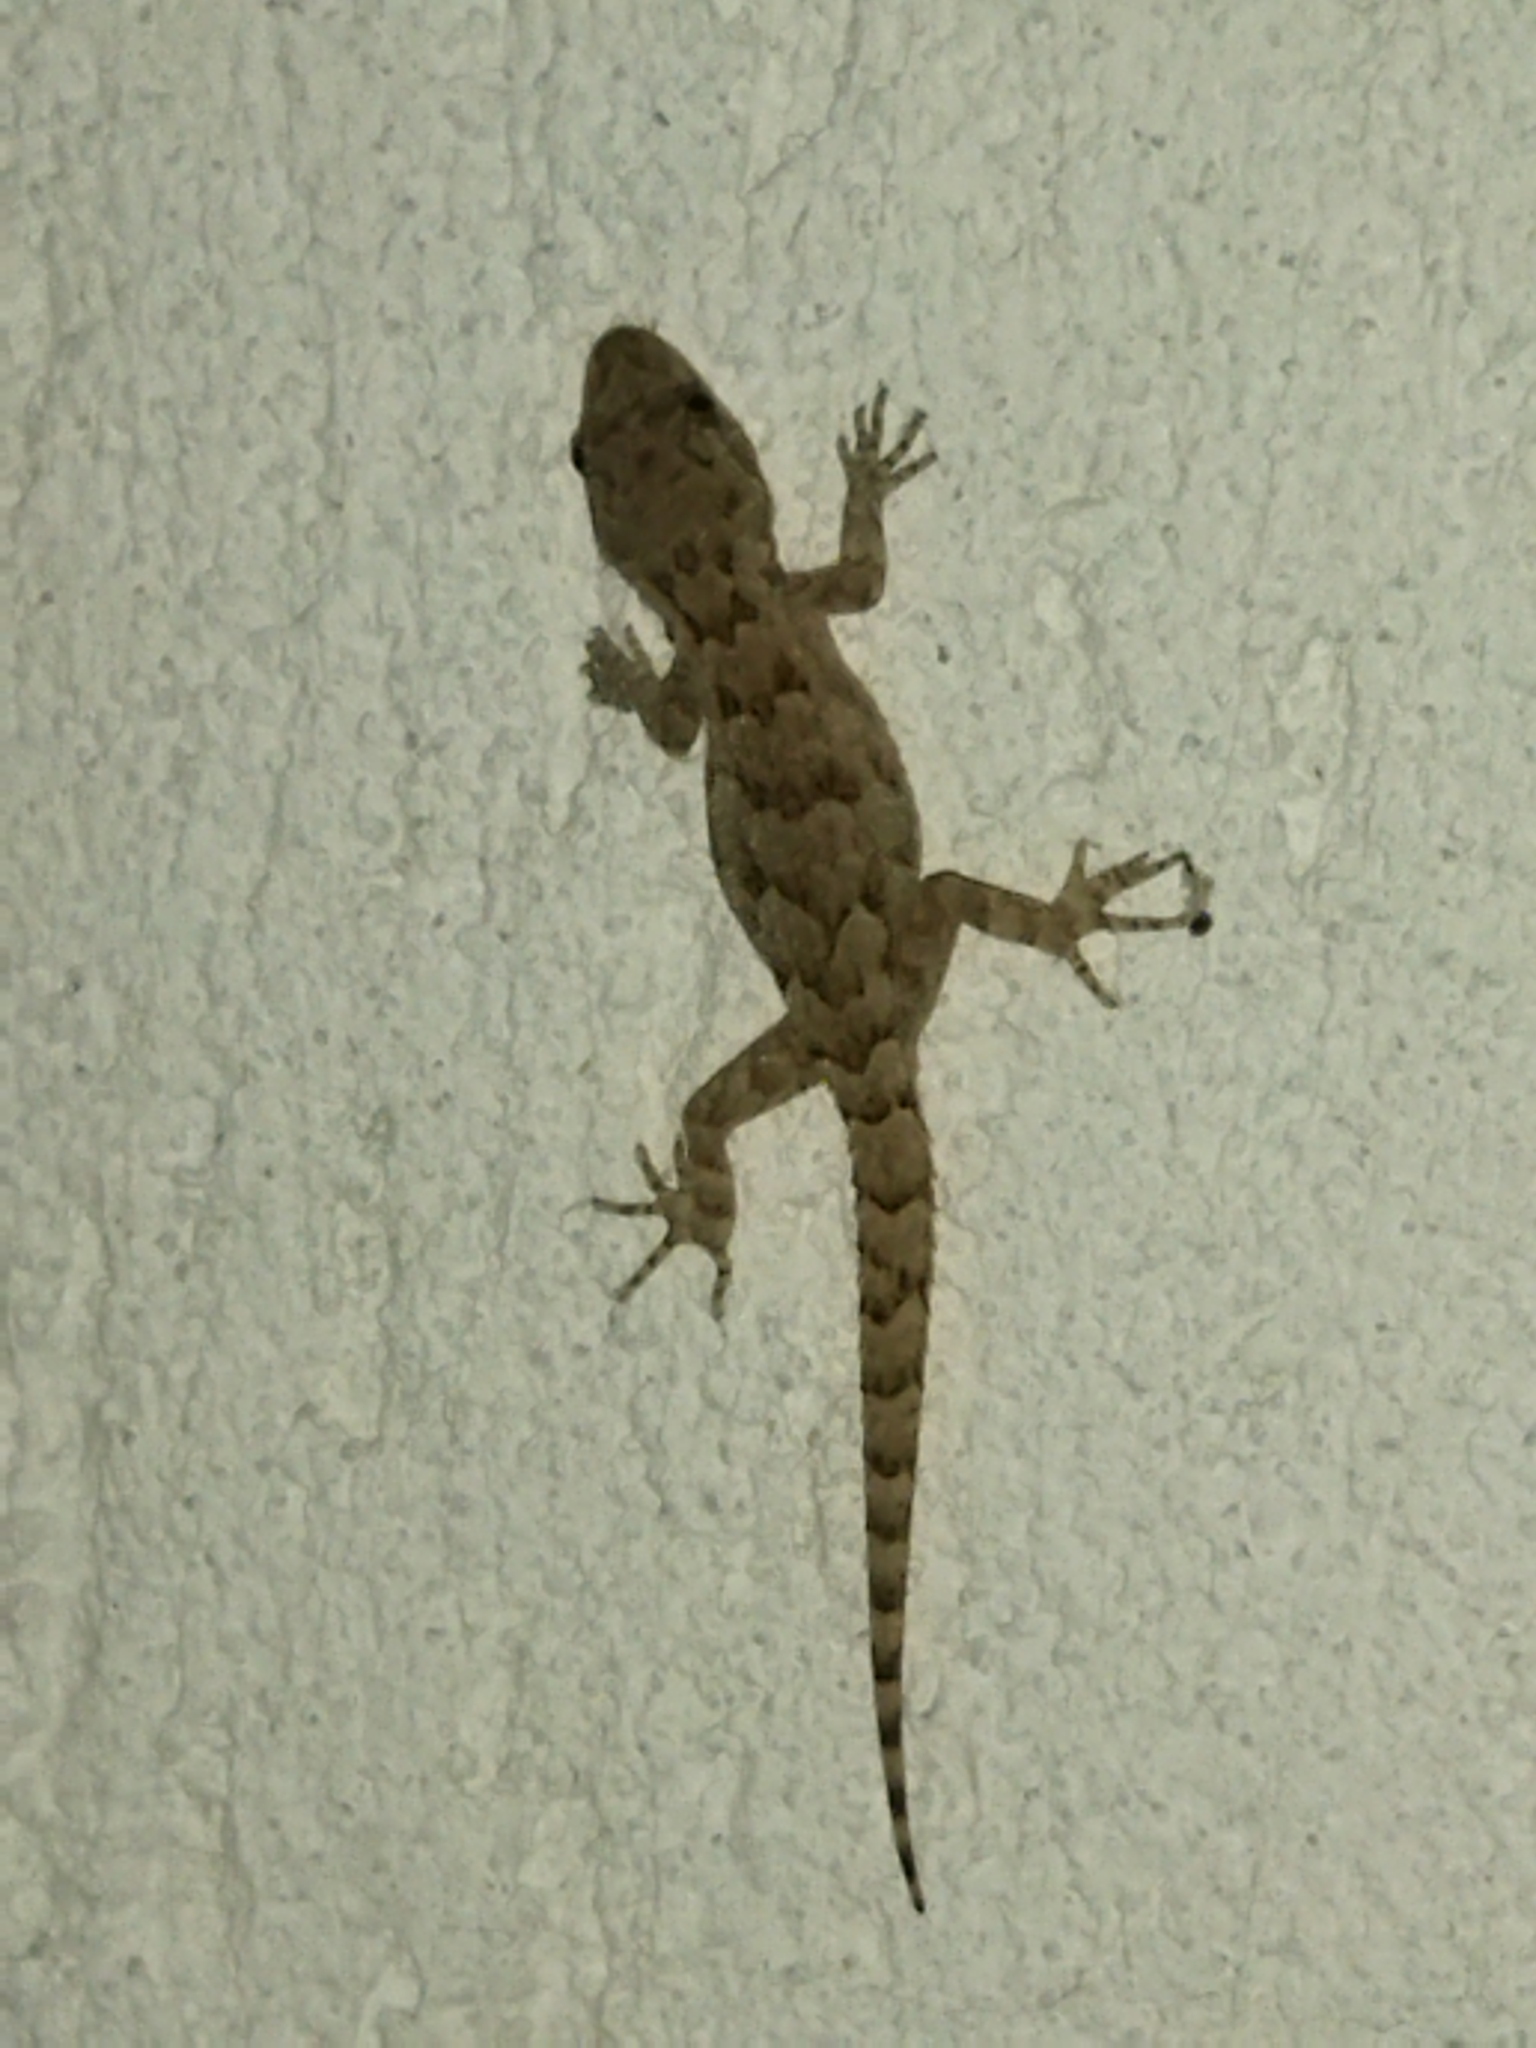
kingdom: Animalia
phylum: Chordata
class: Squamata
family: Gekkonidae
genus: Mediodactylus
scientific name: Mediodactylus kotschyi
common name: Kotschy's gecko
